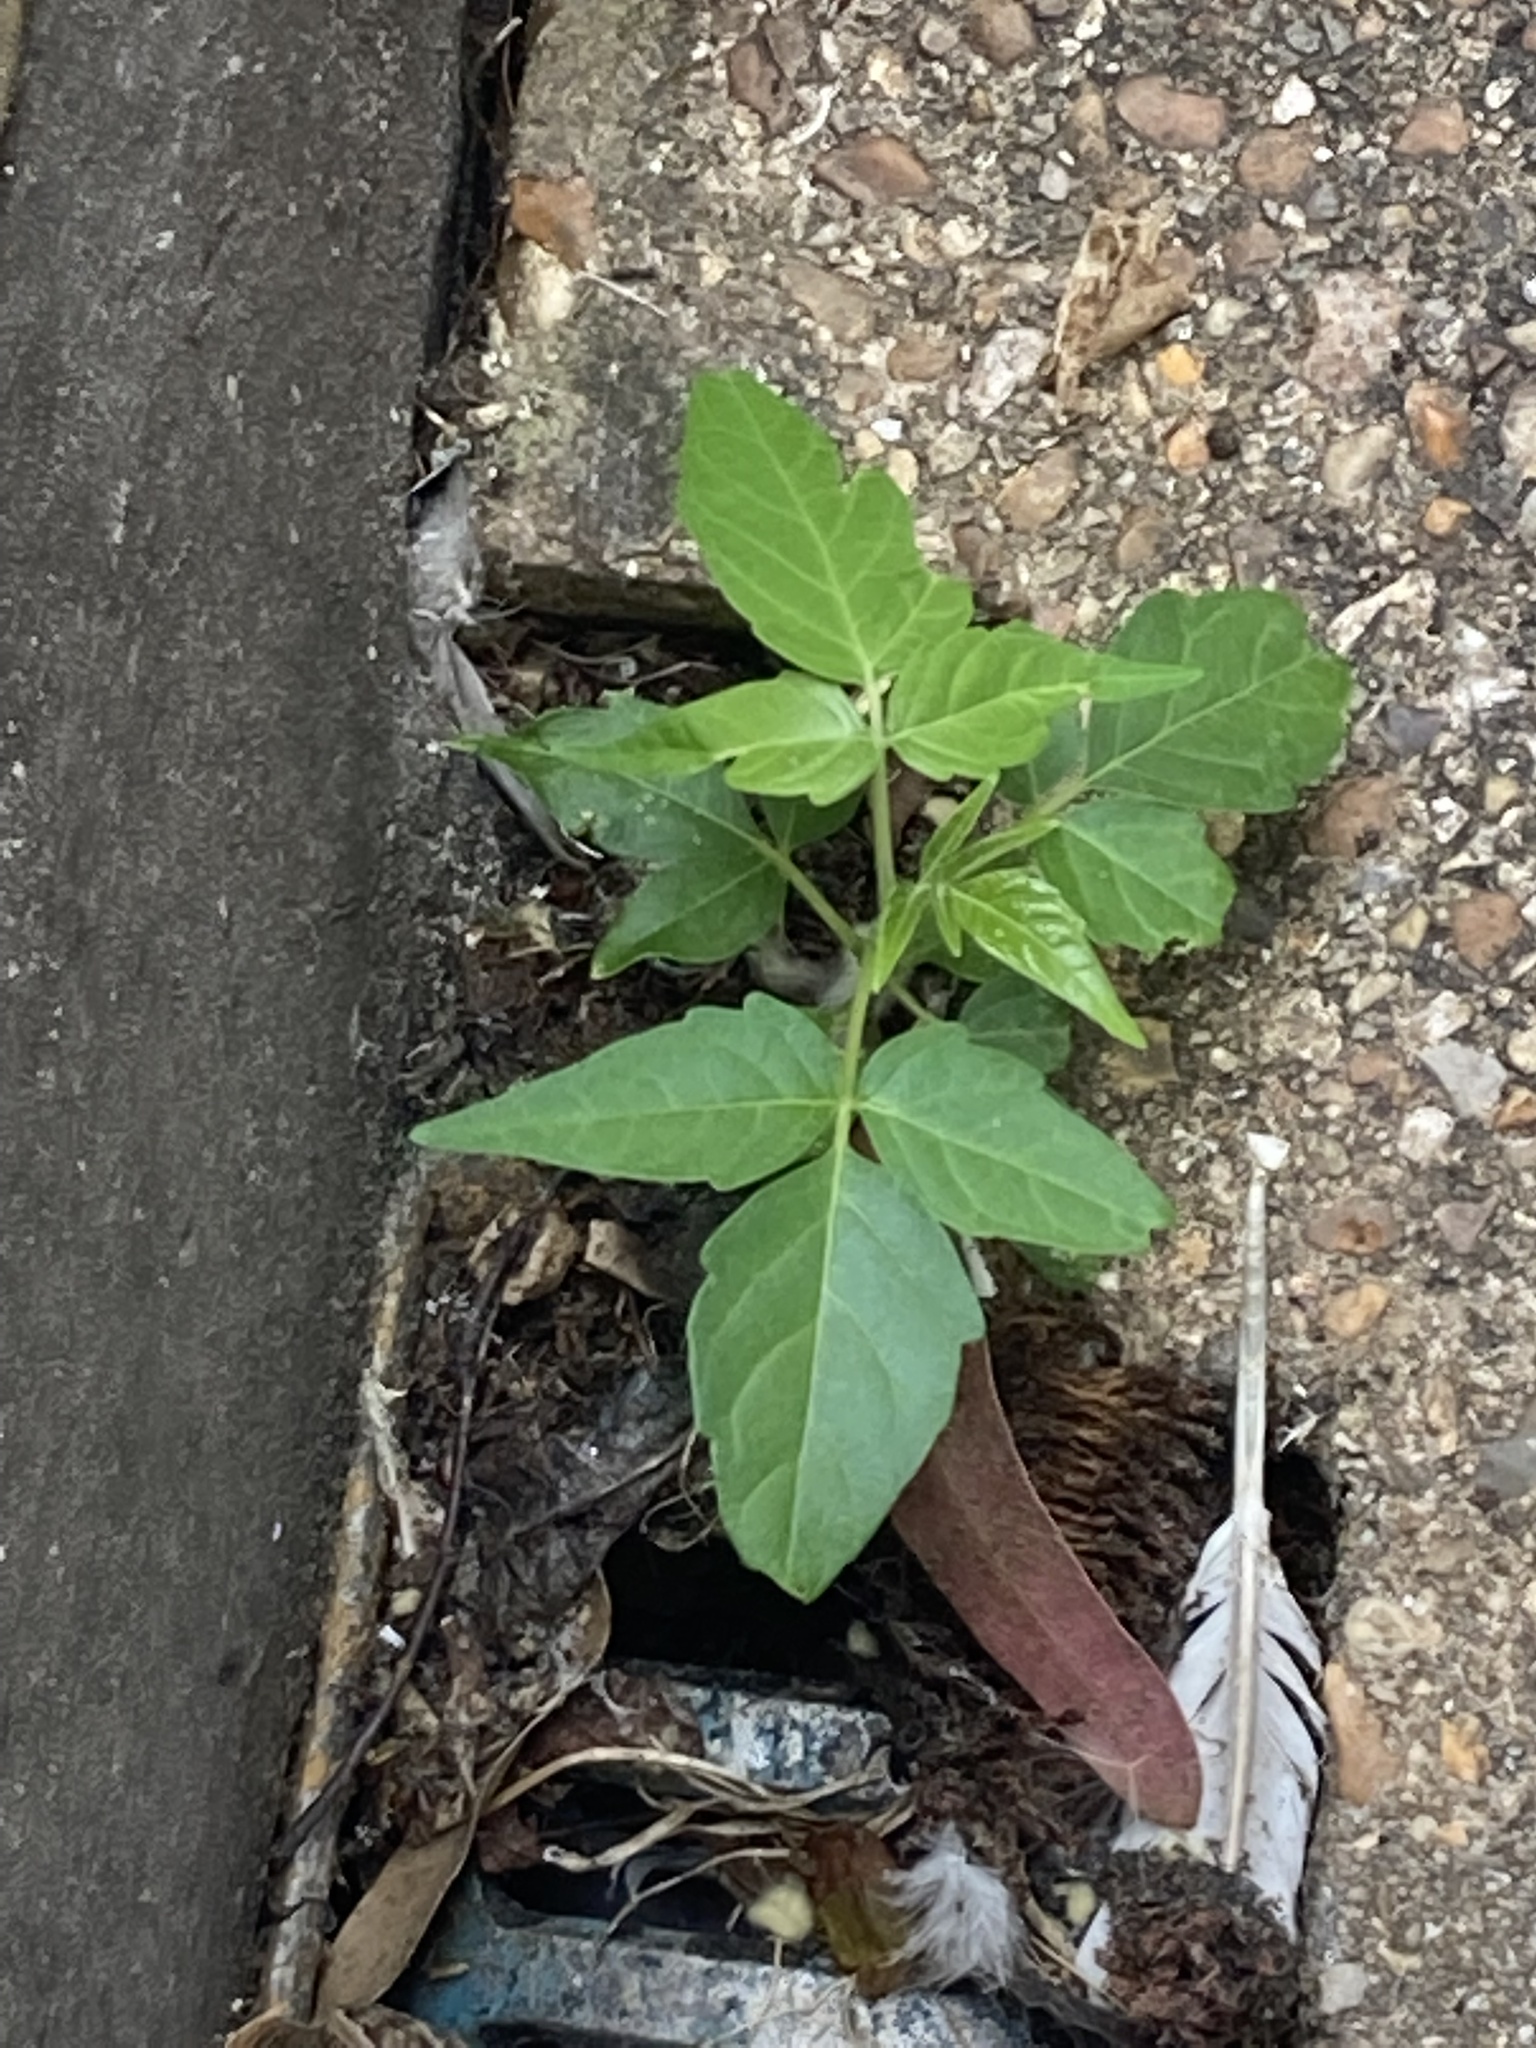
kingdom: Plantae
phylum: Tracheophyta
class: Magnoliopsida
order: Solanales
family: Solanaceae
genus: Solanum
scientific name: Solanum lycopersicum
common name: Garden tomato
